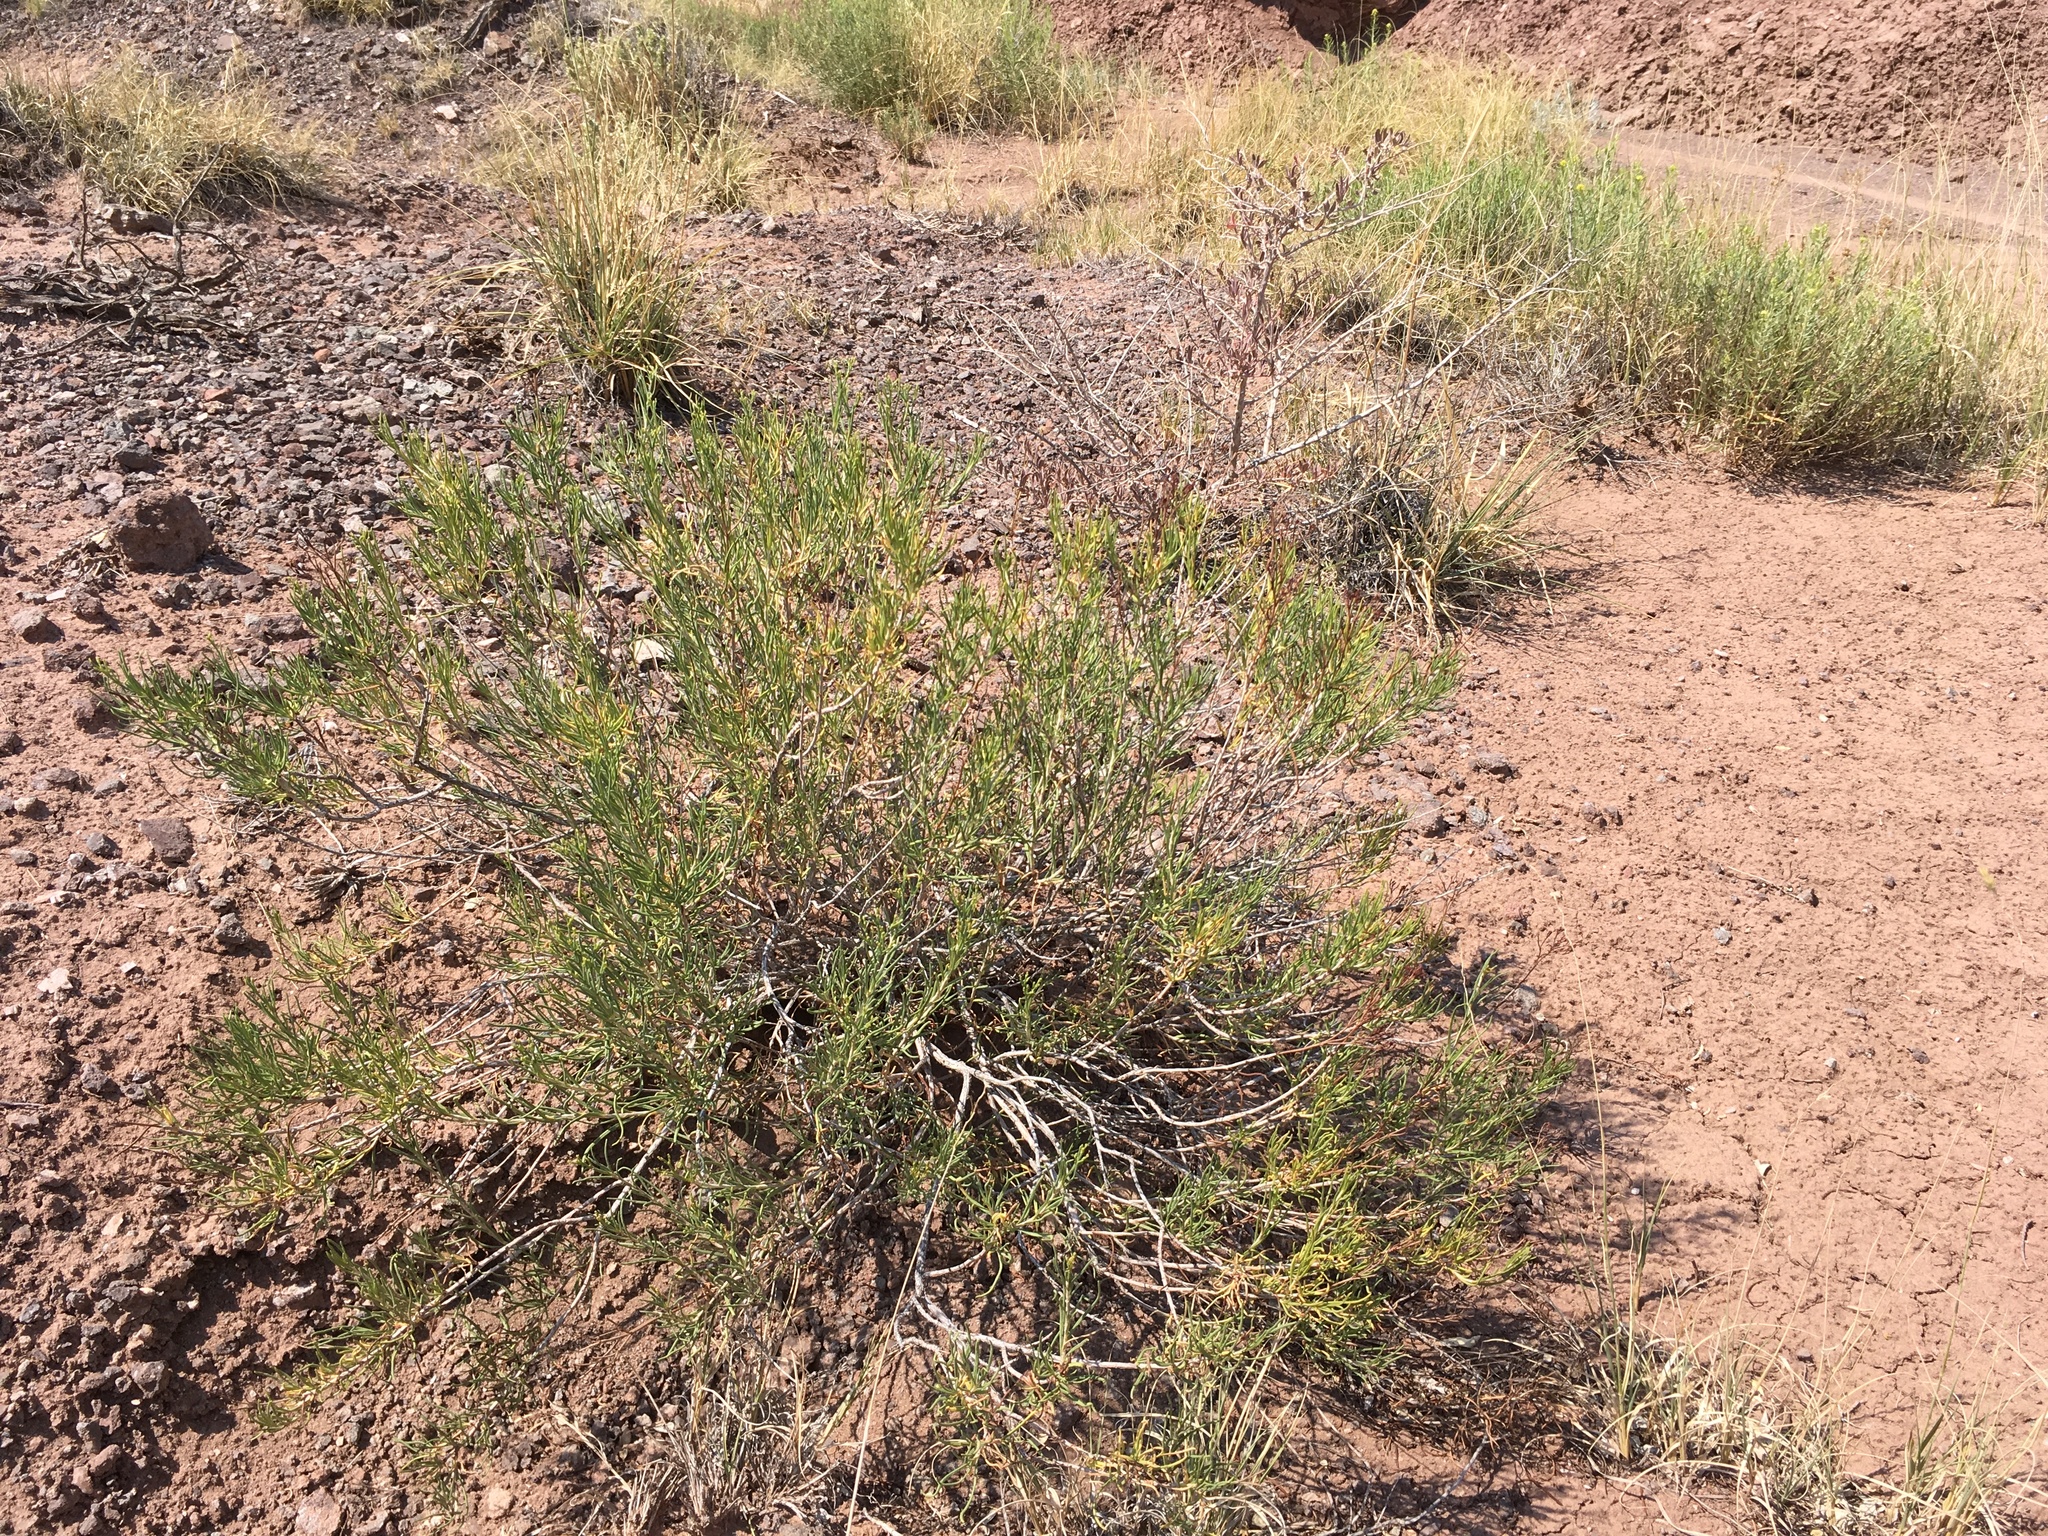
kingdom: Plantae
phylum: Tracheophyta
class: Magnoliopsida
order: Caryophyllales
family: Polygonaceae
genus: Eriogonum
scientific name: Eriogonum leptophyllum
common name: Slender-leaf wild buckwheat
